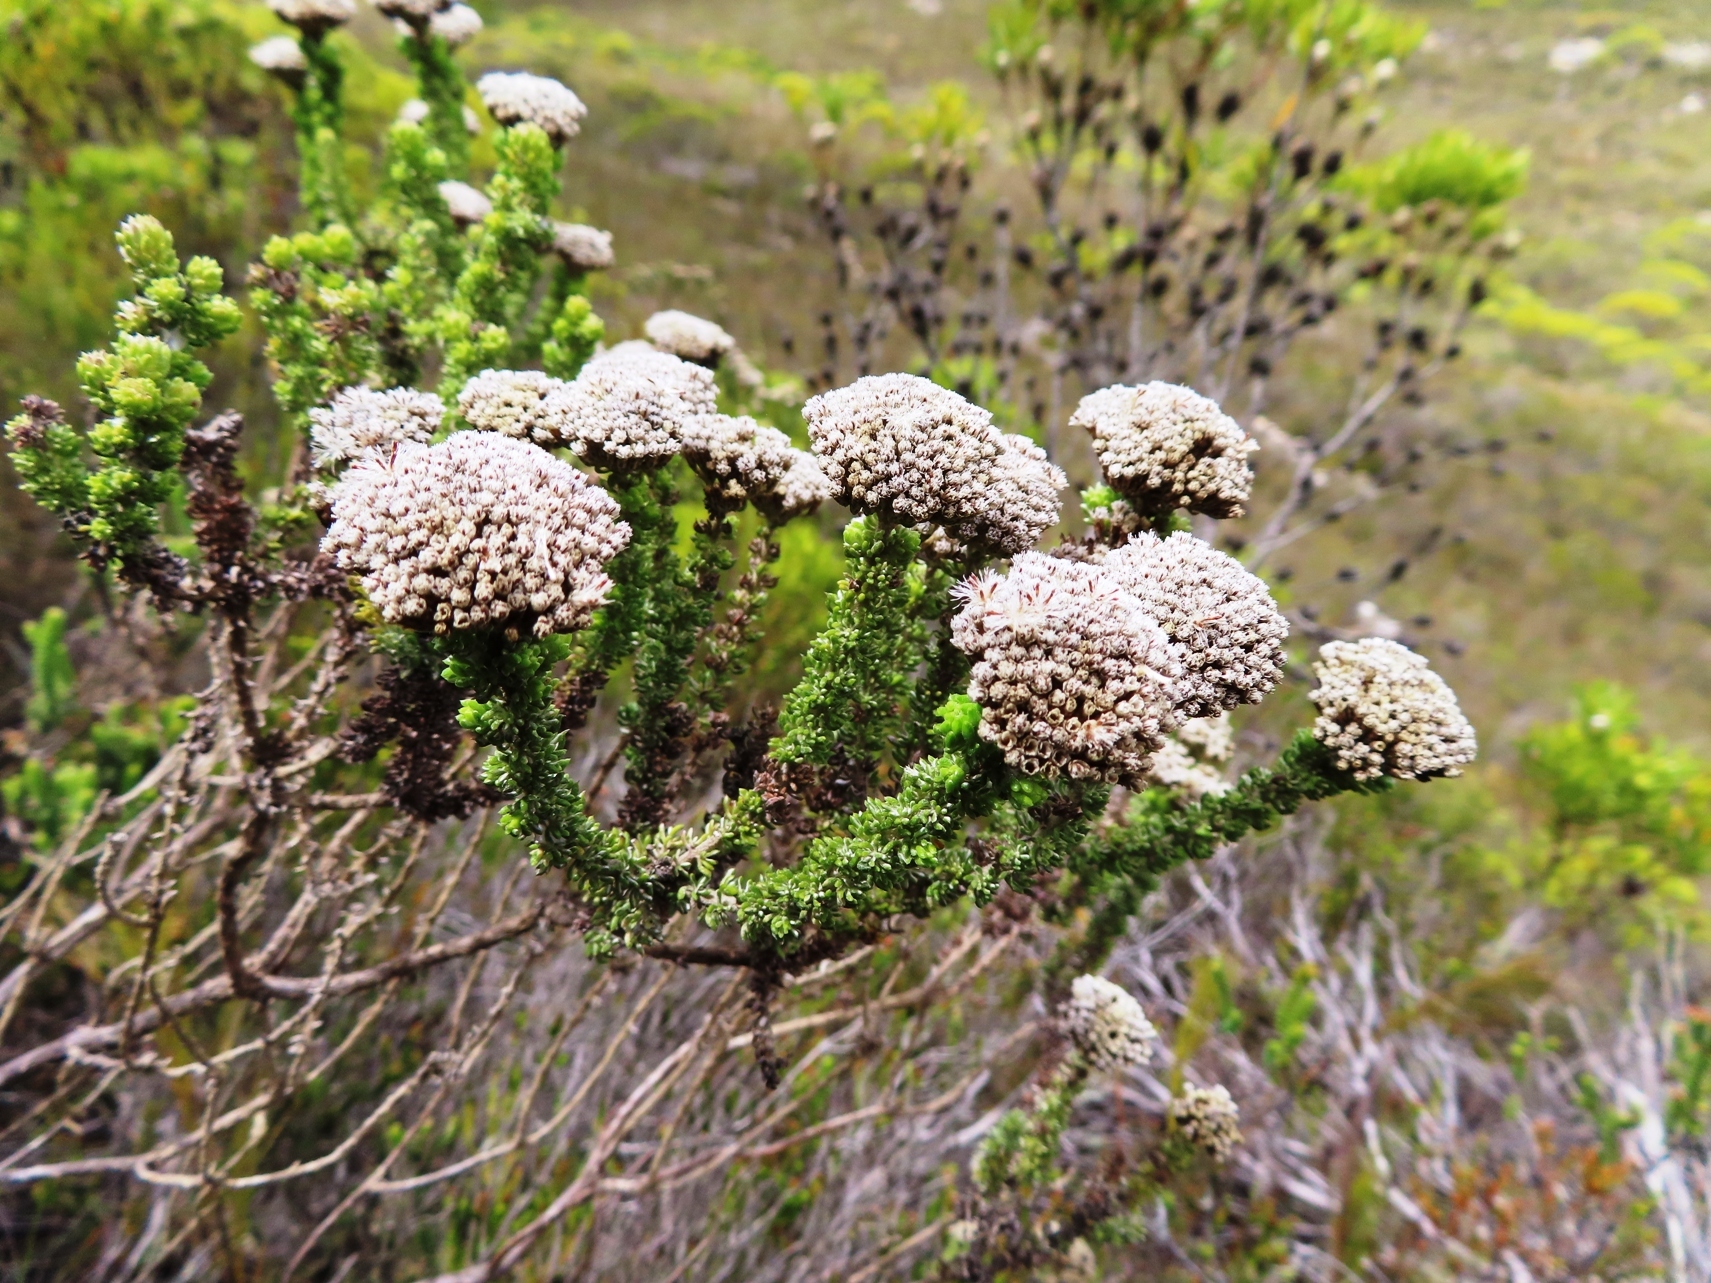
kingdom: Plantae
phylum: Tracheophyta
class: Magnoliopsida
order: Asterales
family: Asteraceae
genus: Metalasia
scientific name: Metalasia calcicola
